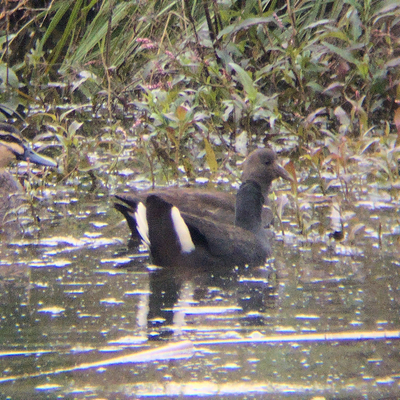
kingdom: Animalia
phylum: Chordata
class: Aves
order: Gruiformes
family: Rallidae
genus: Gallinula
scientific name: Gallinula tenebrosa
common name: Dusky moorhen
